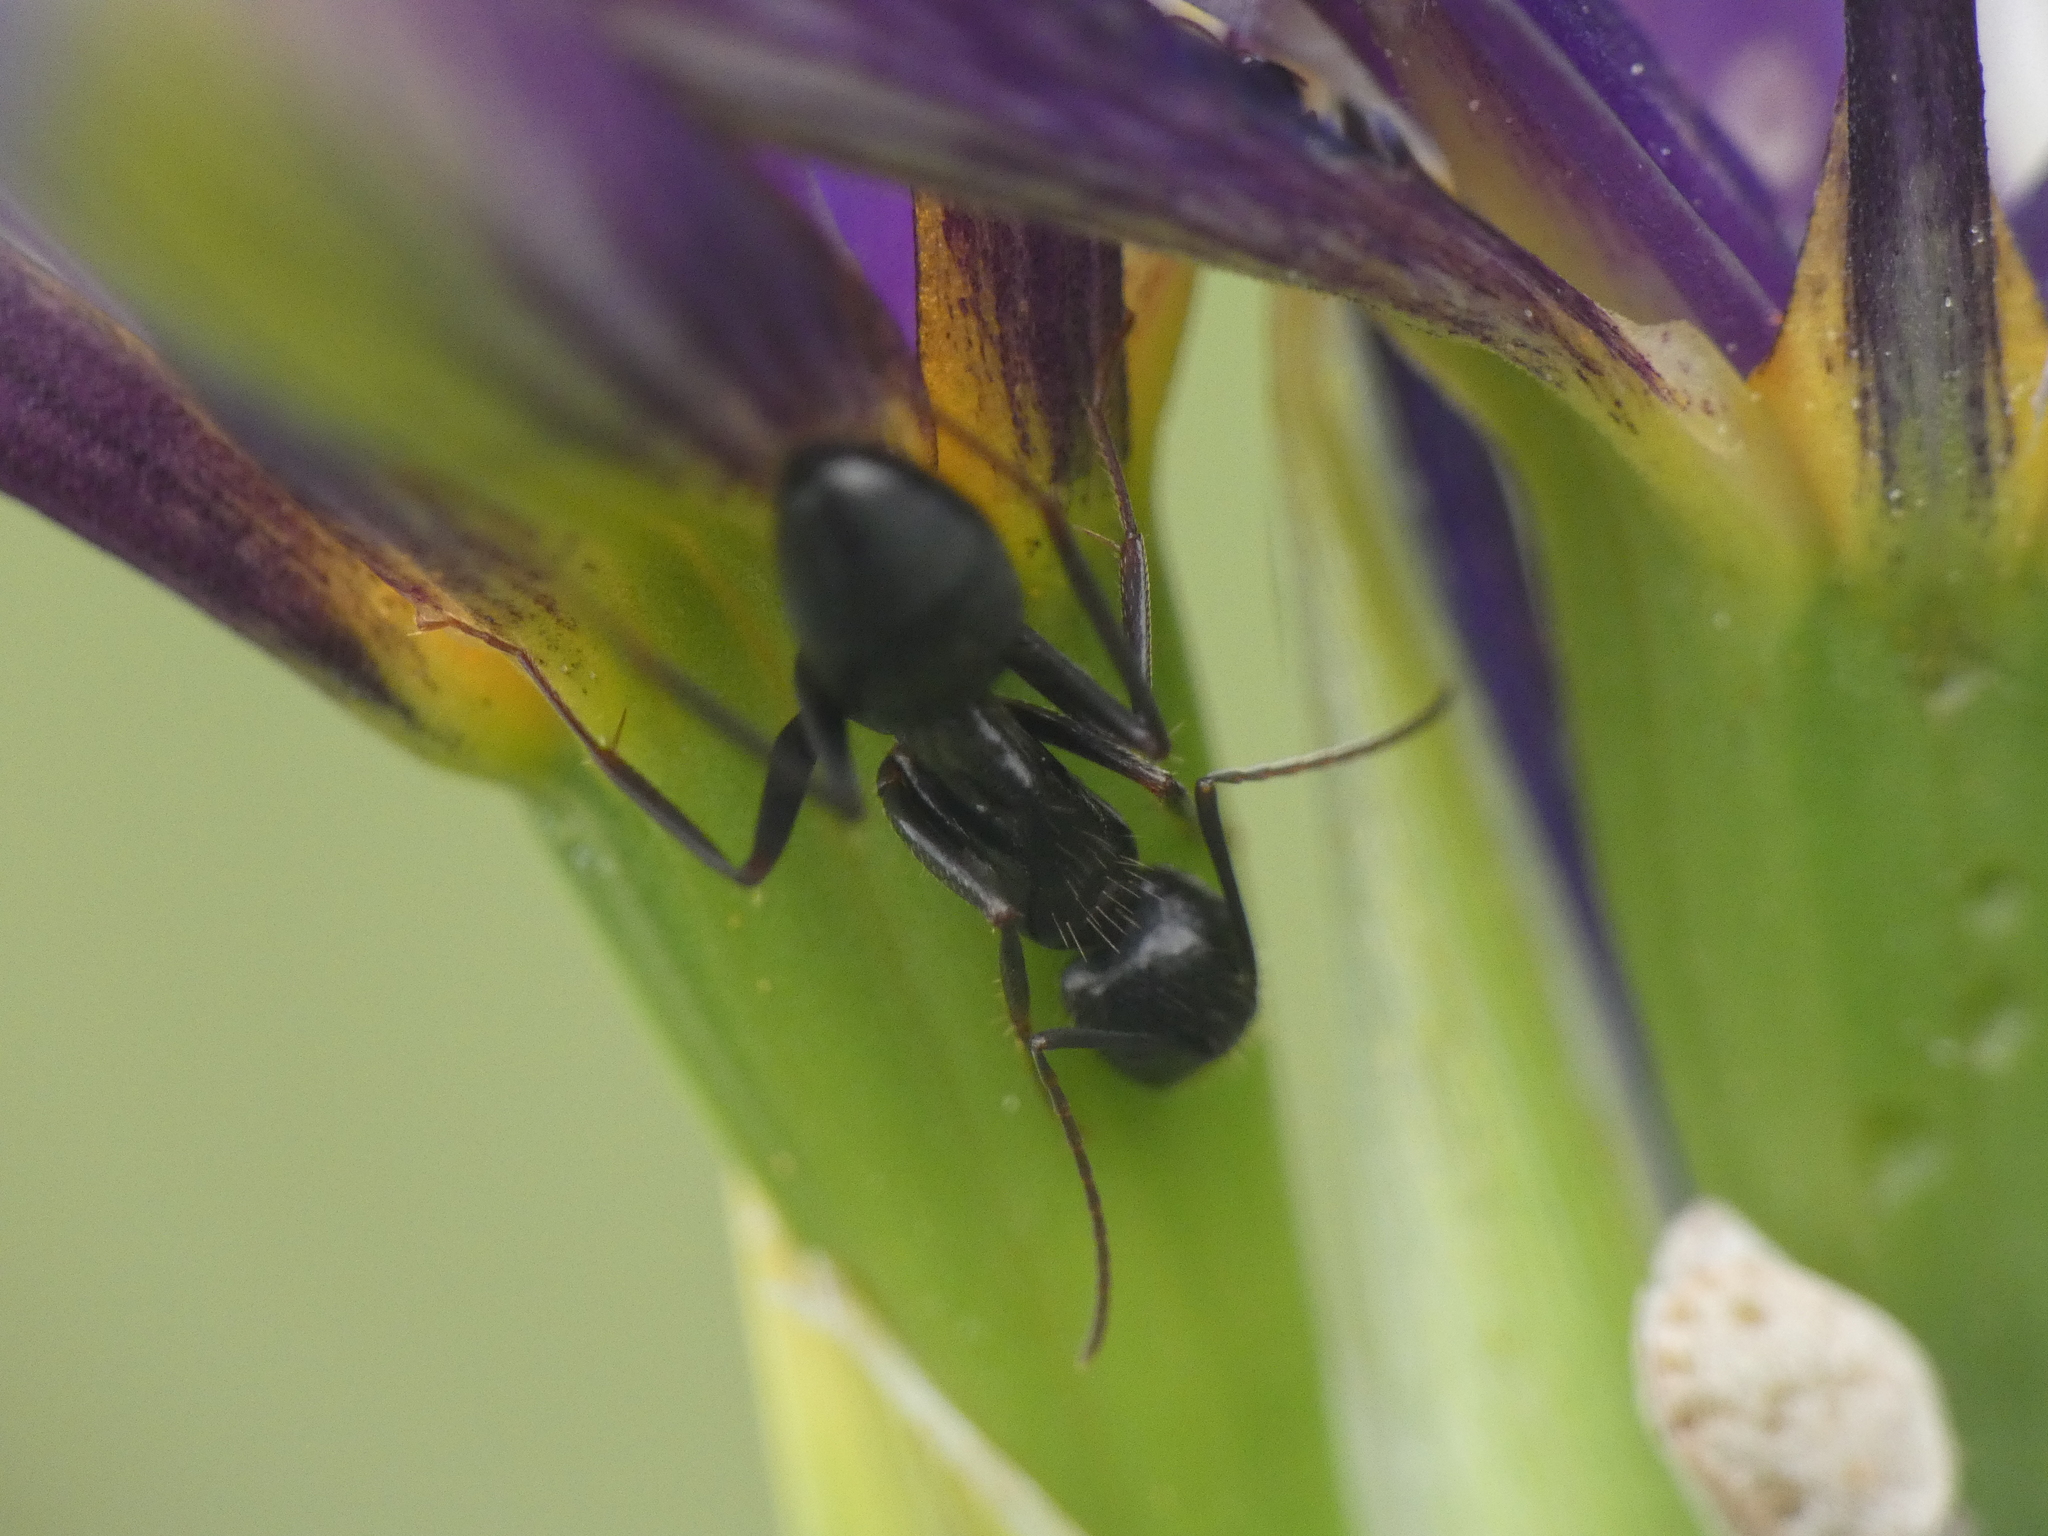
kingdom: Animalia
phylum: Arthropoda
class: Insecta
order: Hymenoptera
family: Formicidae
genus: Camponotus
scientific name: Camponotus aethiops
